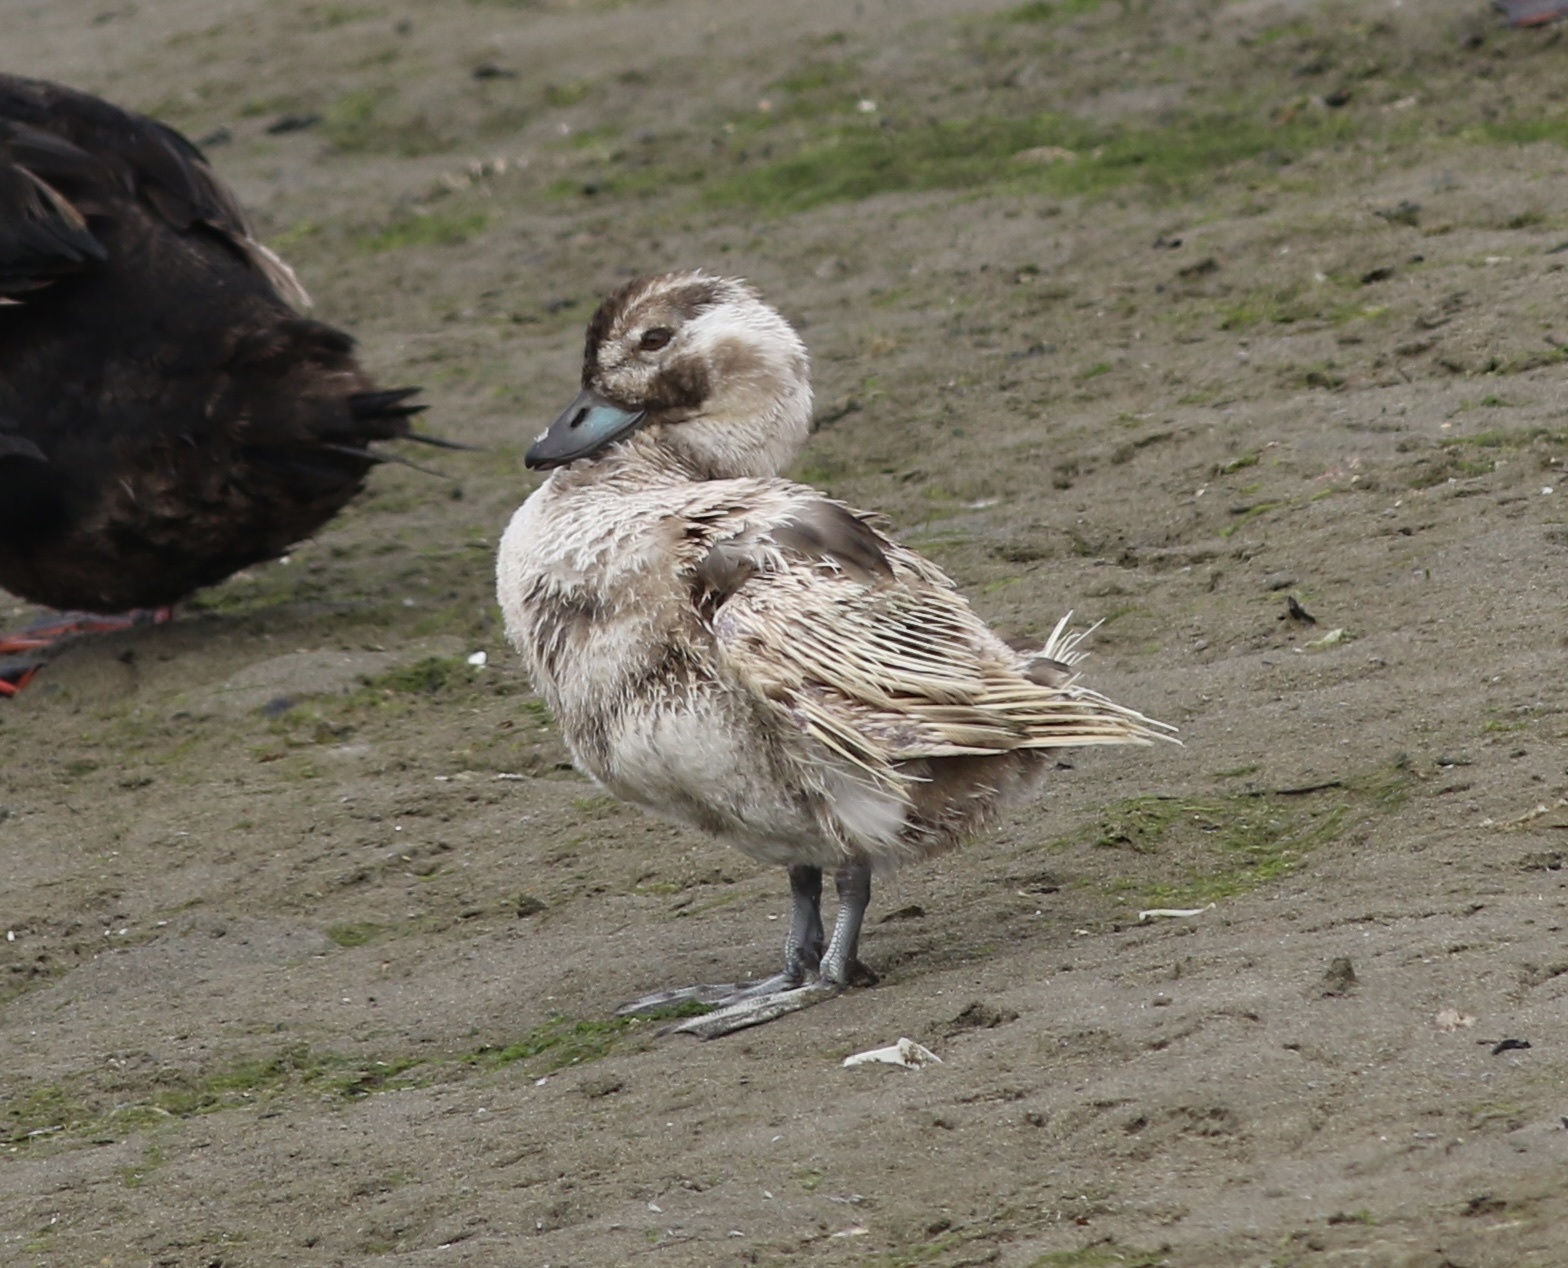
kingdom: Animalia
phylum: Chordata
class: Aves
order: Anseriformes
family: Anatidae
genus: Clangula
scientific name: Clangula hyemalis
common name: Long-tailed duck
